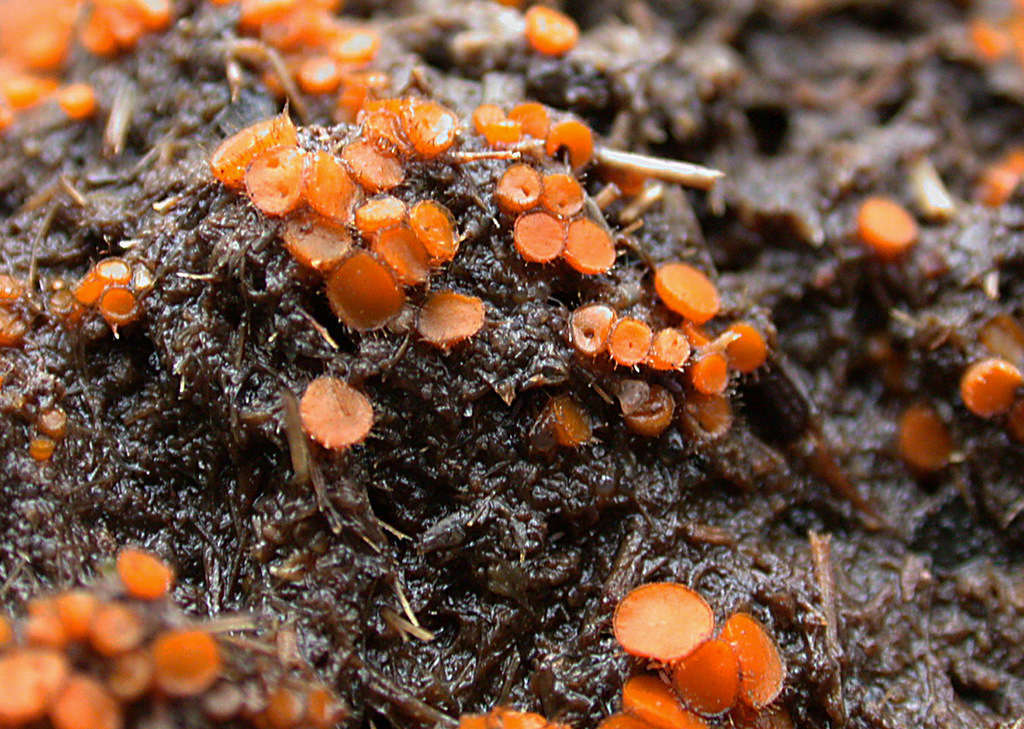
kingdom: Fungi
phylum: Ascomycota
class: Pezizomycetes
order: Pezizales
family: Pyronemataceae
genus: Cheilymenia
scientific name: Cheilymenia raripila
